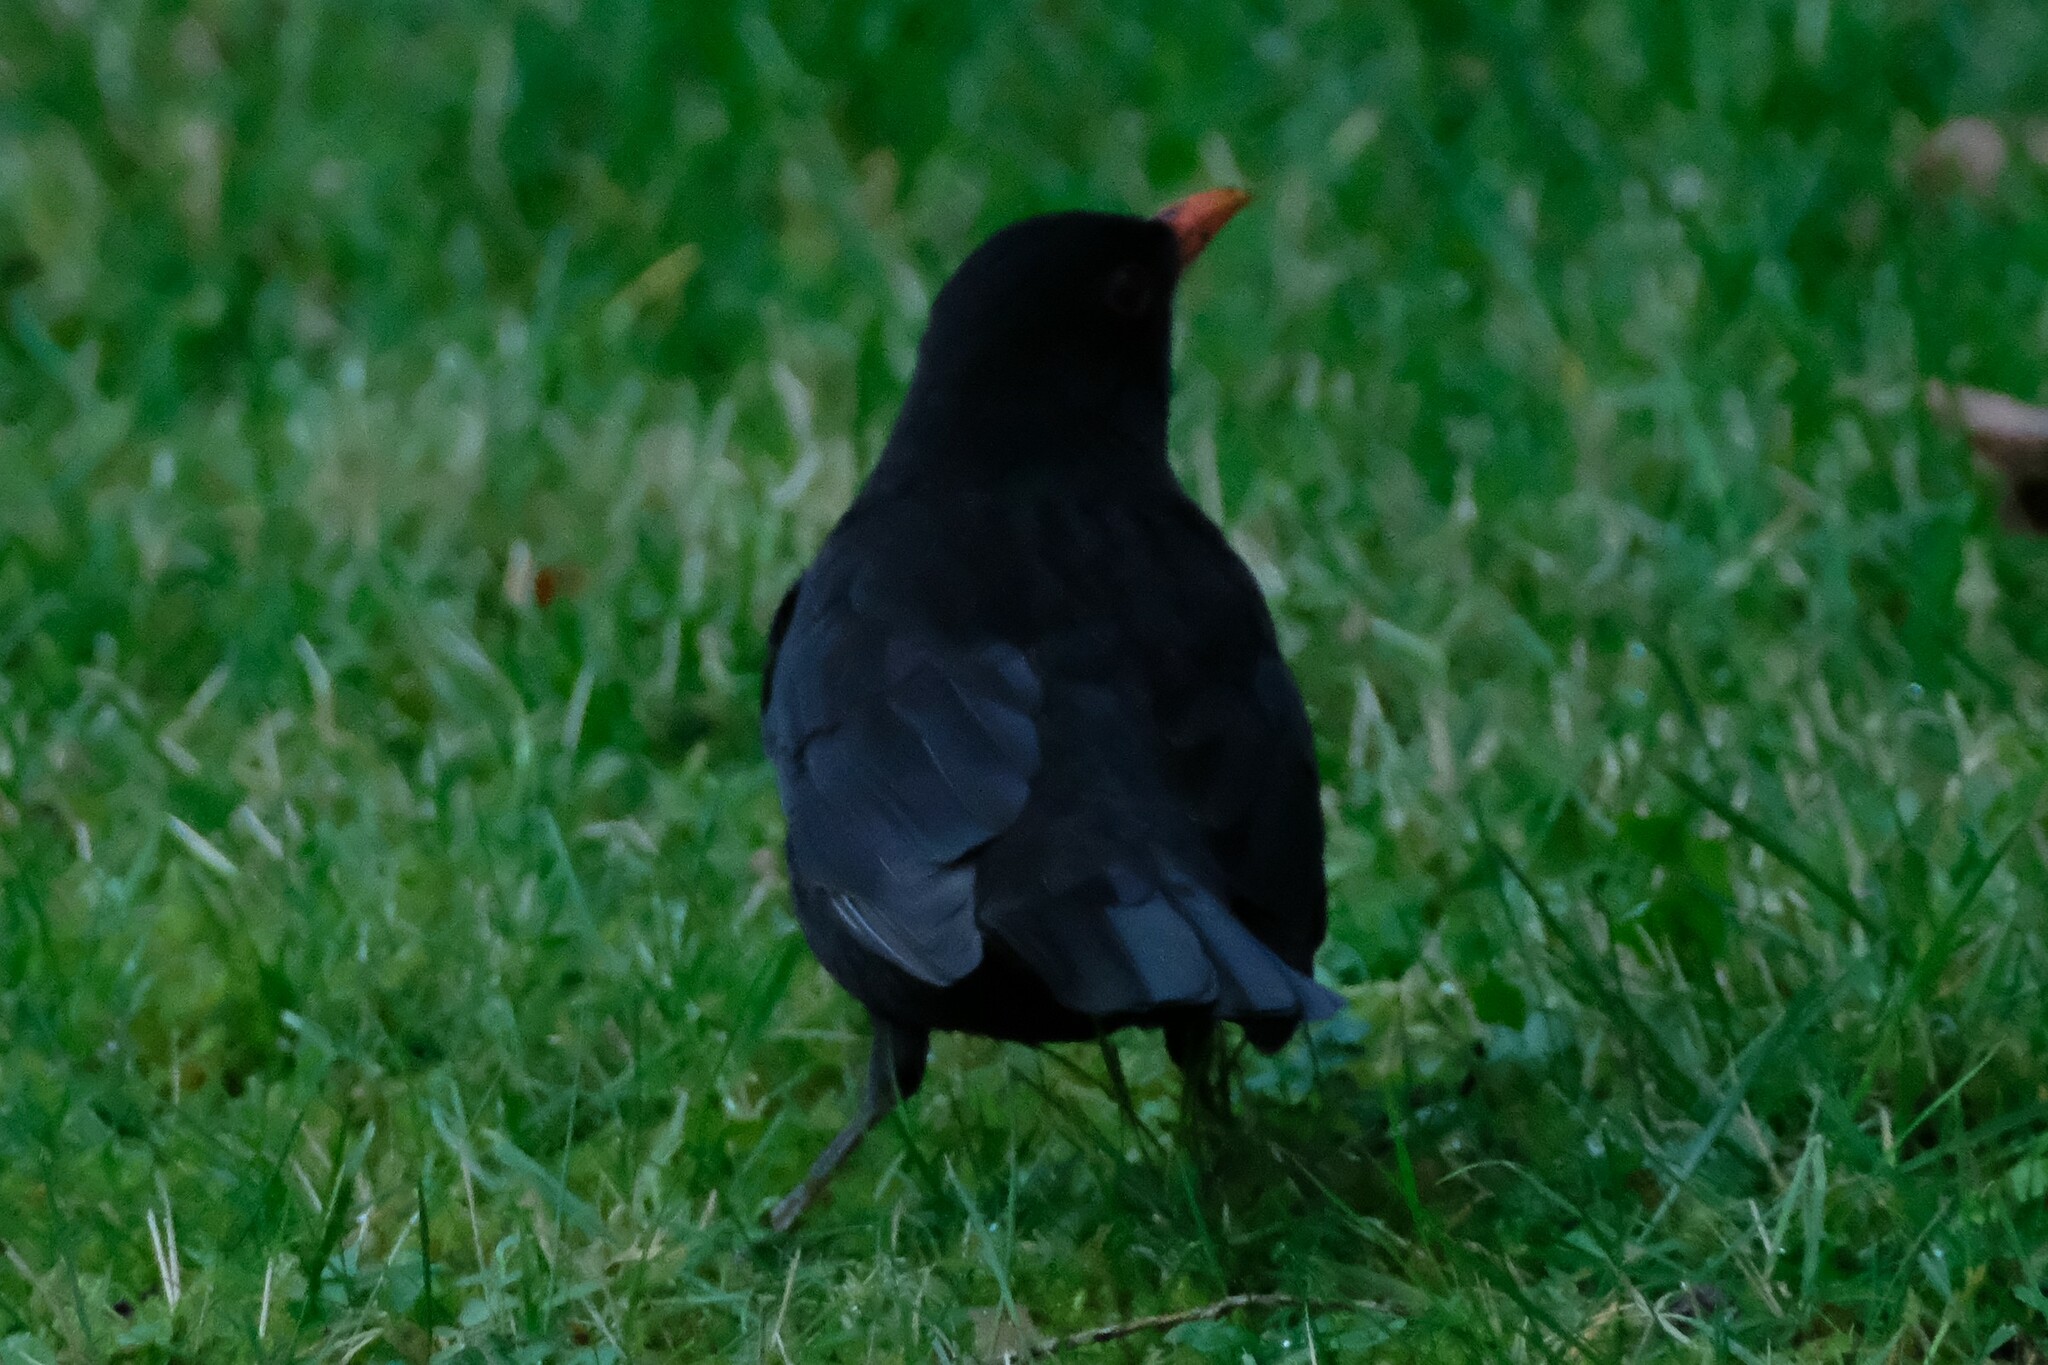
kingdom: Animalia
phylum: Chordata
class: Aves
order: Passeriformes
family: Turdidae
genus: Turdus
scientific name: Turdus merula
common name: Common blackbird
